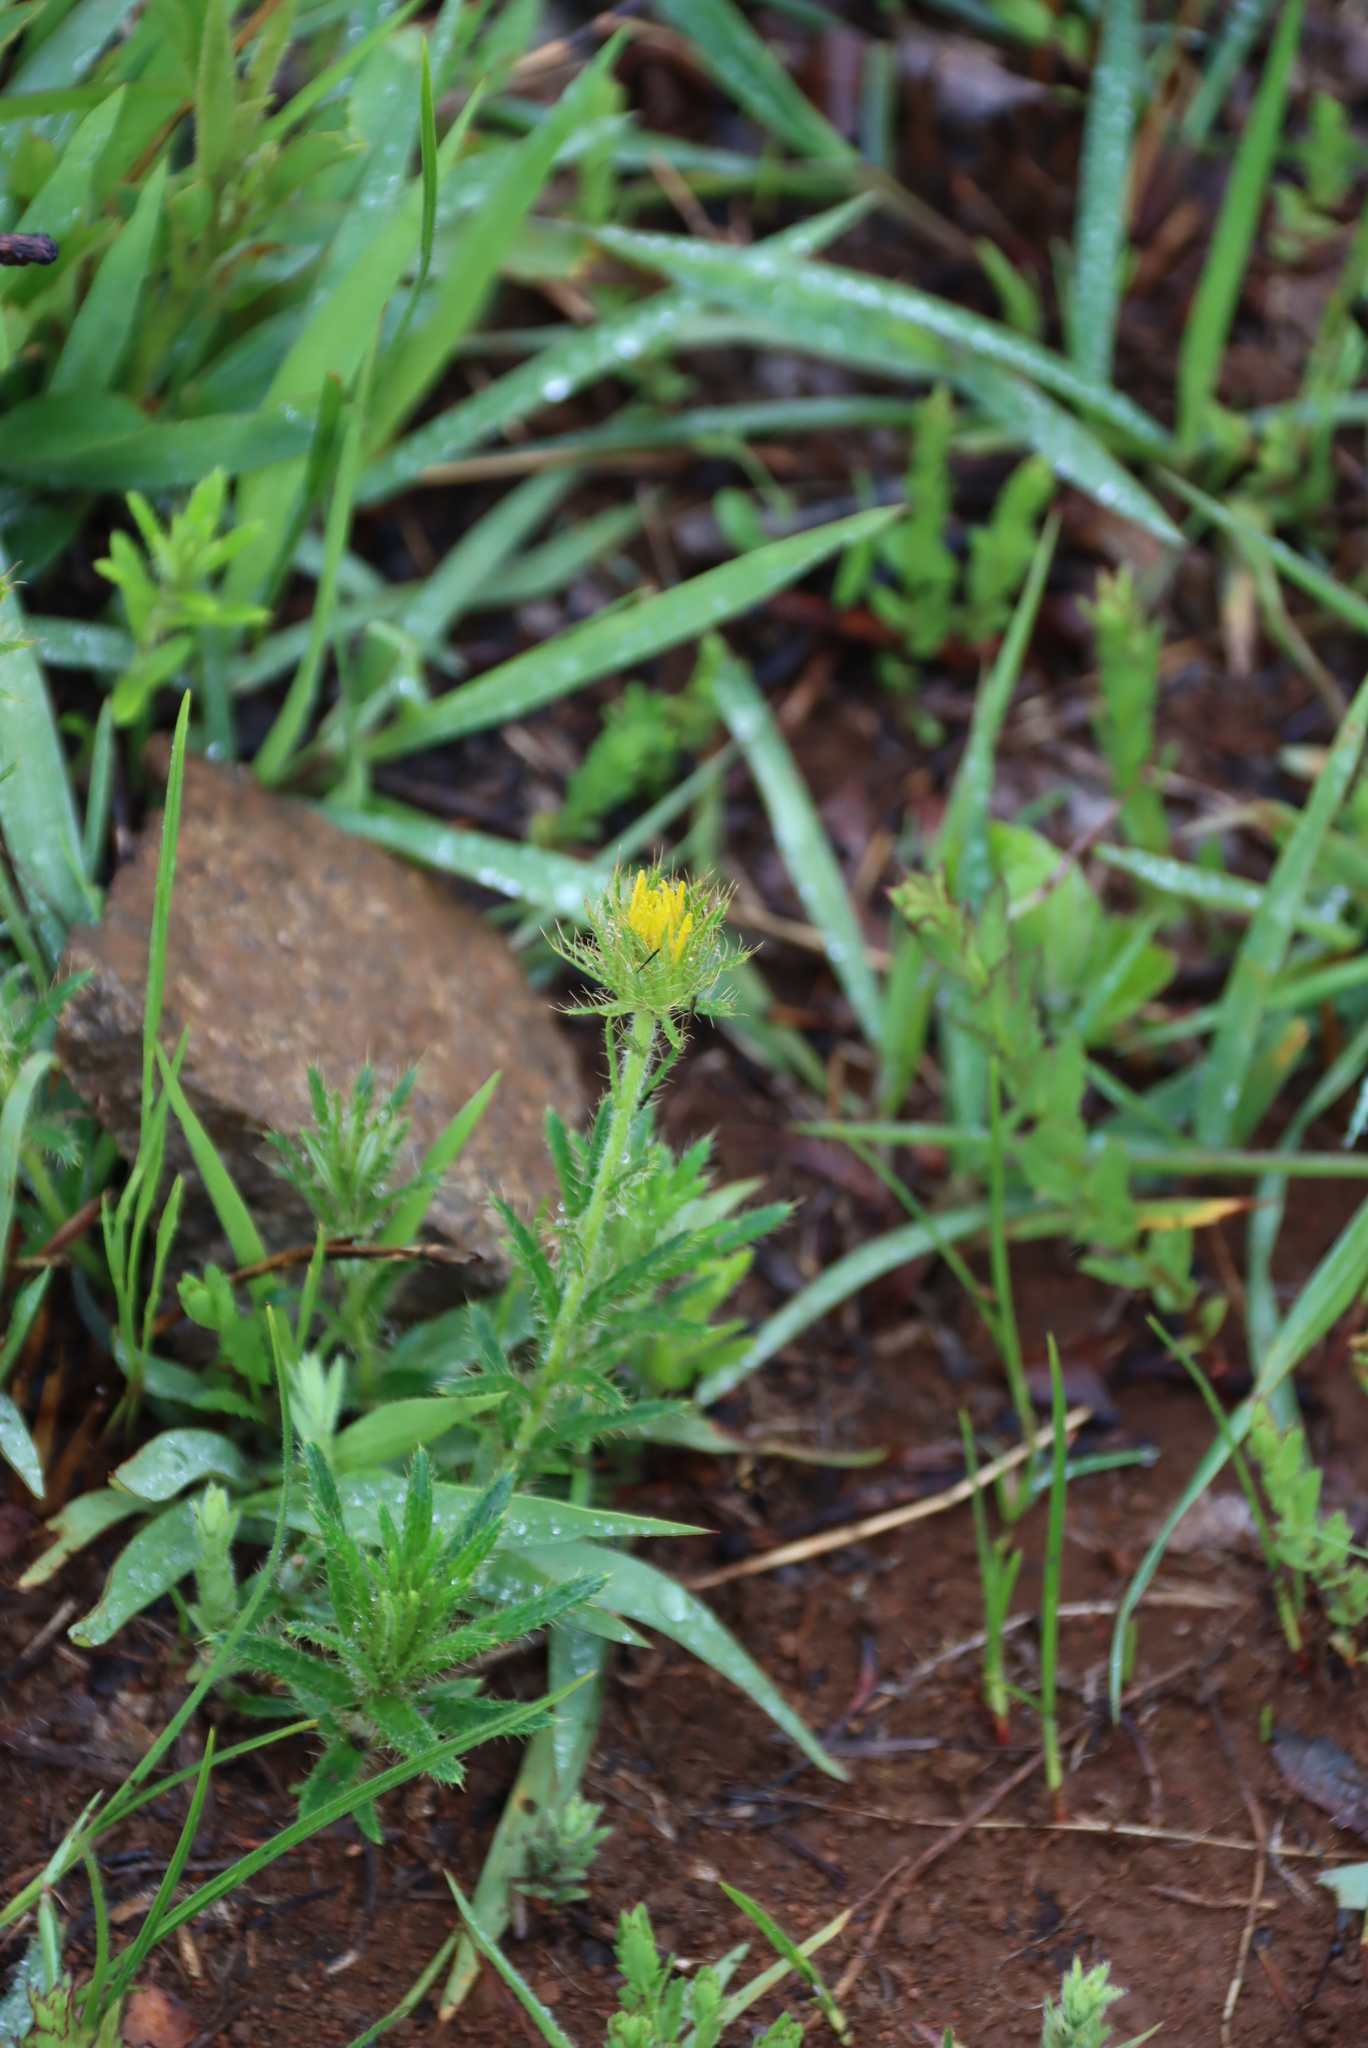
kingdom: Plantae
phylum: Tracheophyta
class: Magnoliopsida
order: Asterales
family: Asteraceae
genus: Berkheya
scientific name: Berkheya echinacea
